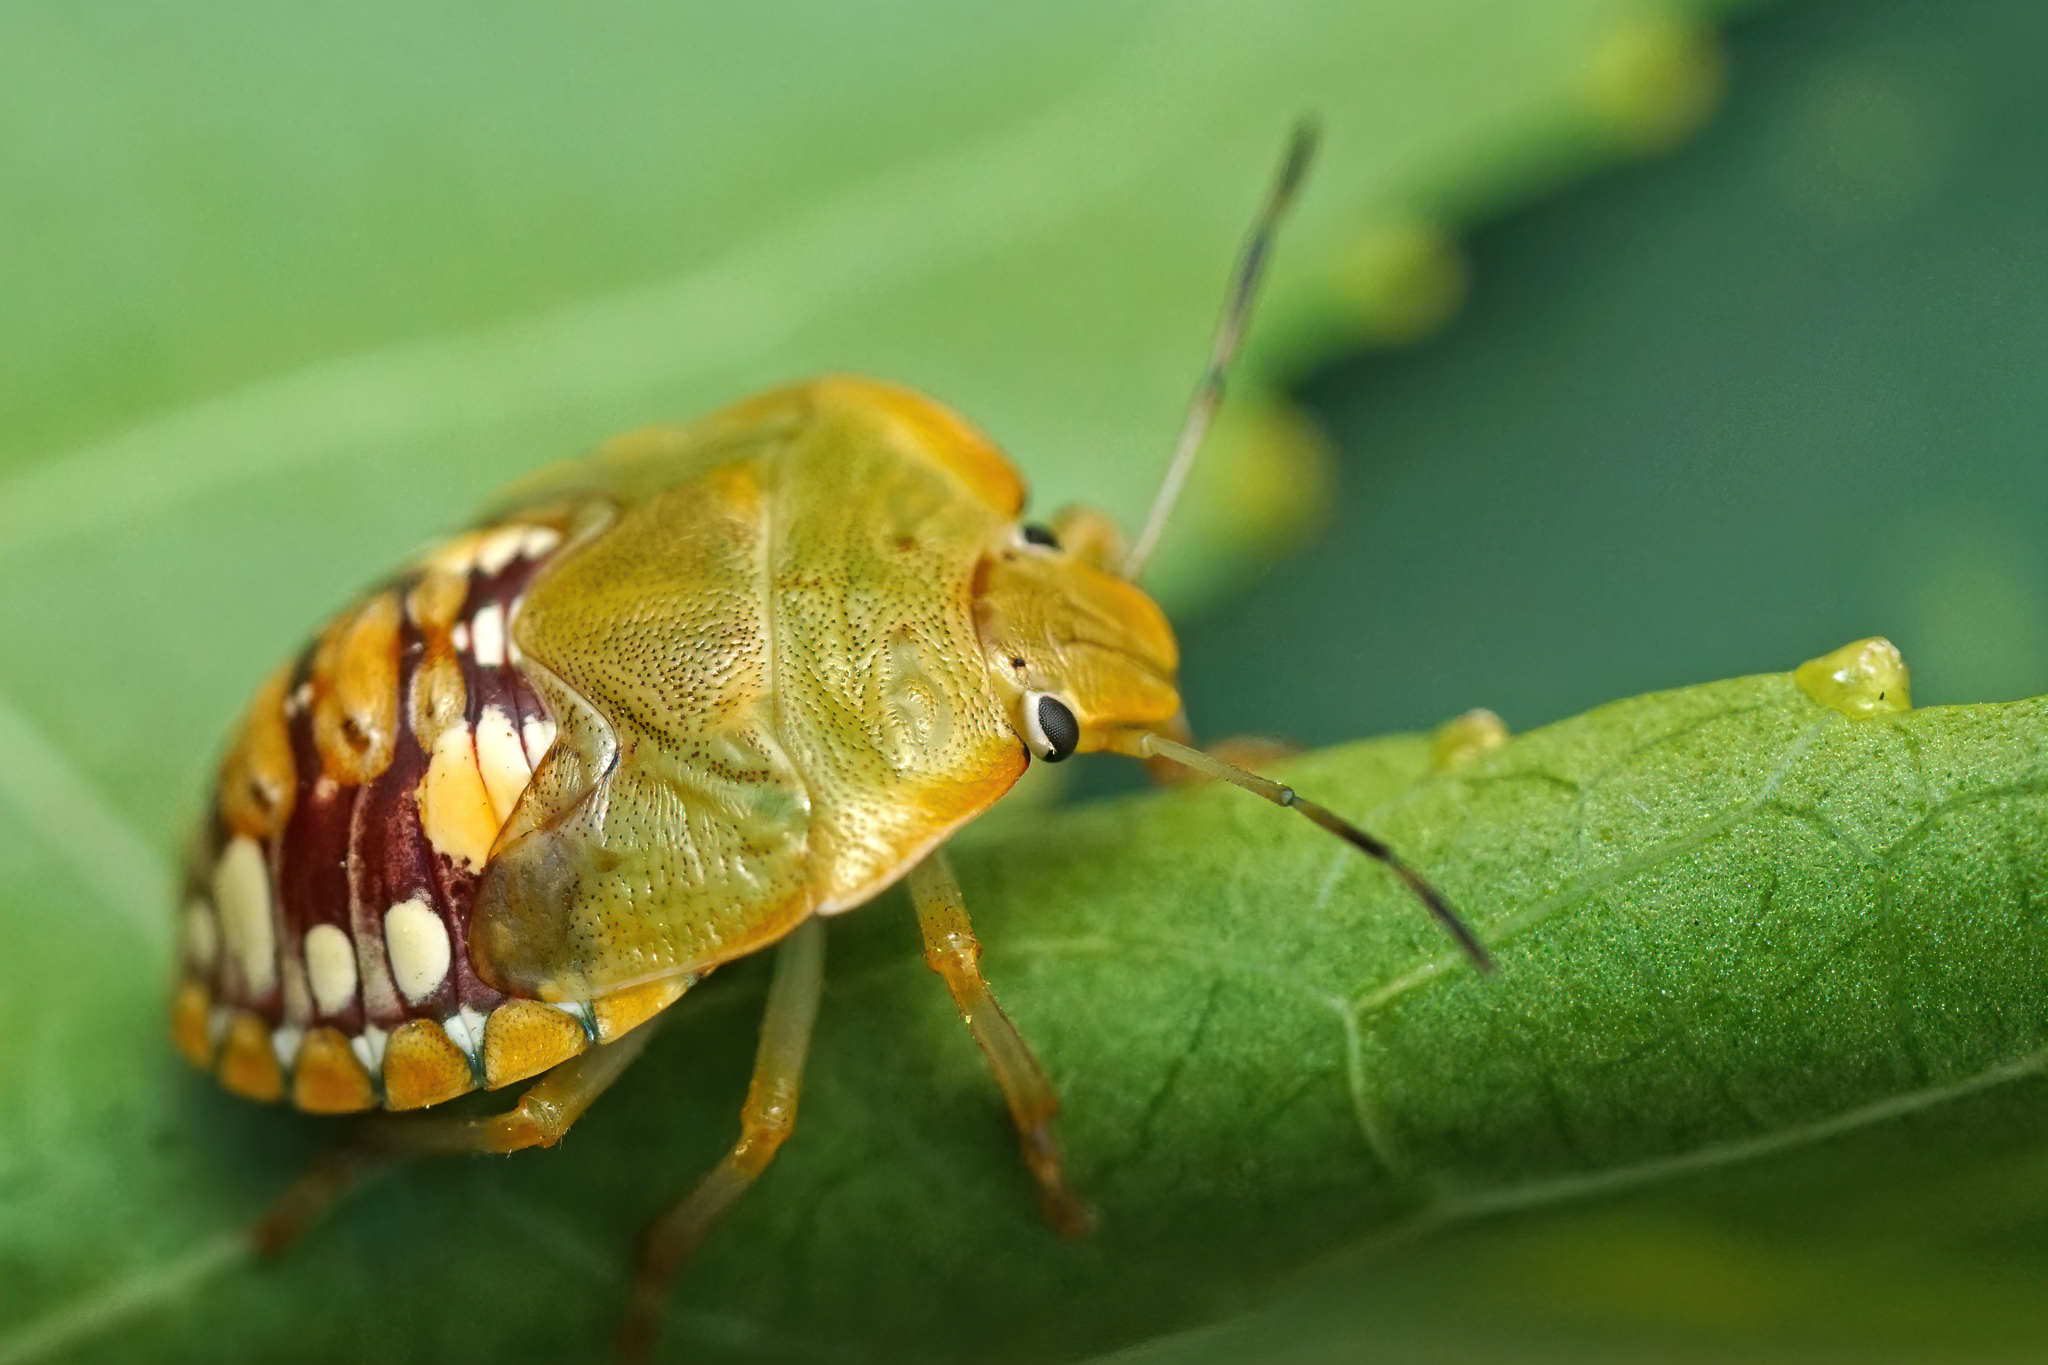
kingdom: Animalia
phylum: Arthropoda
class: Insecta
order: Hemiptera
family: Pentatomidae
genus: Acrosternum
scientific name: Acrosternum marginatum
